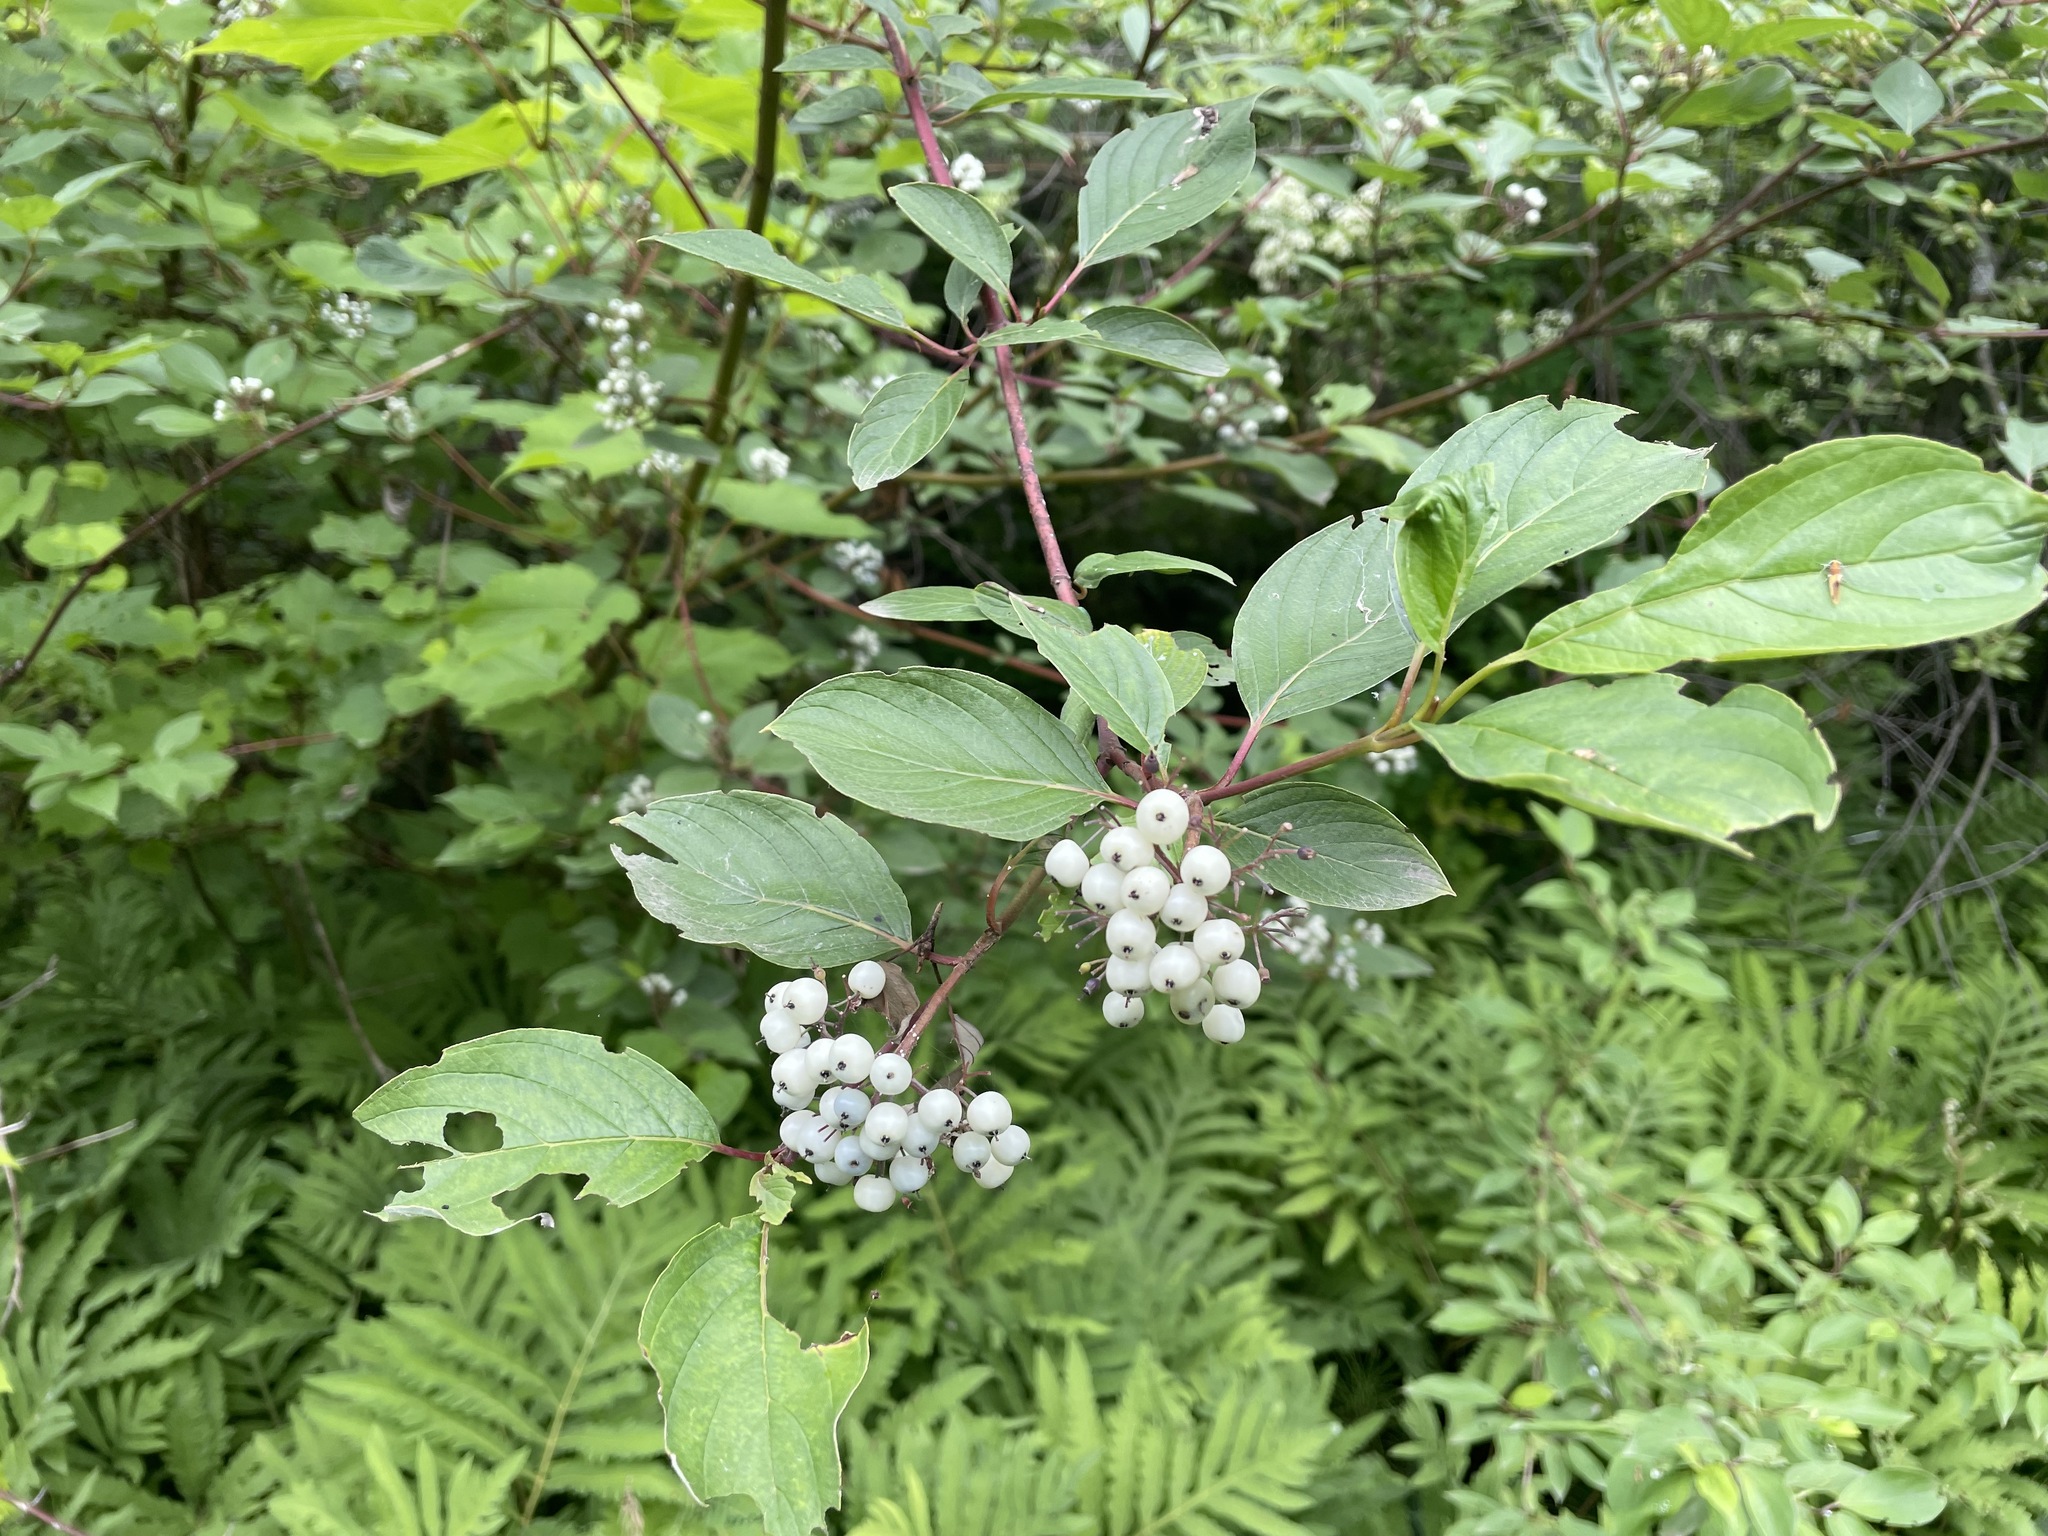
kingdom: Plantae
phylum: Tracheophyta
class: Magnoliopsida
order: Cornales
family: Cornaceae
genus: Cornus
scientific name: Cornus sericea
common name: Red-osier dogwood
